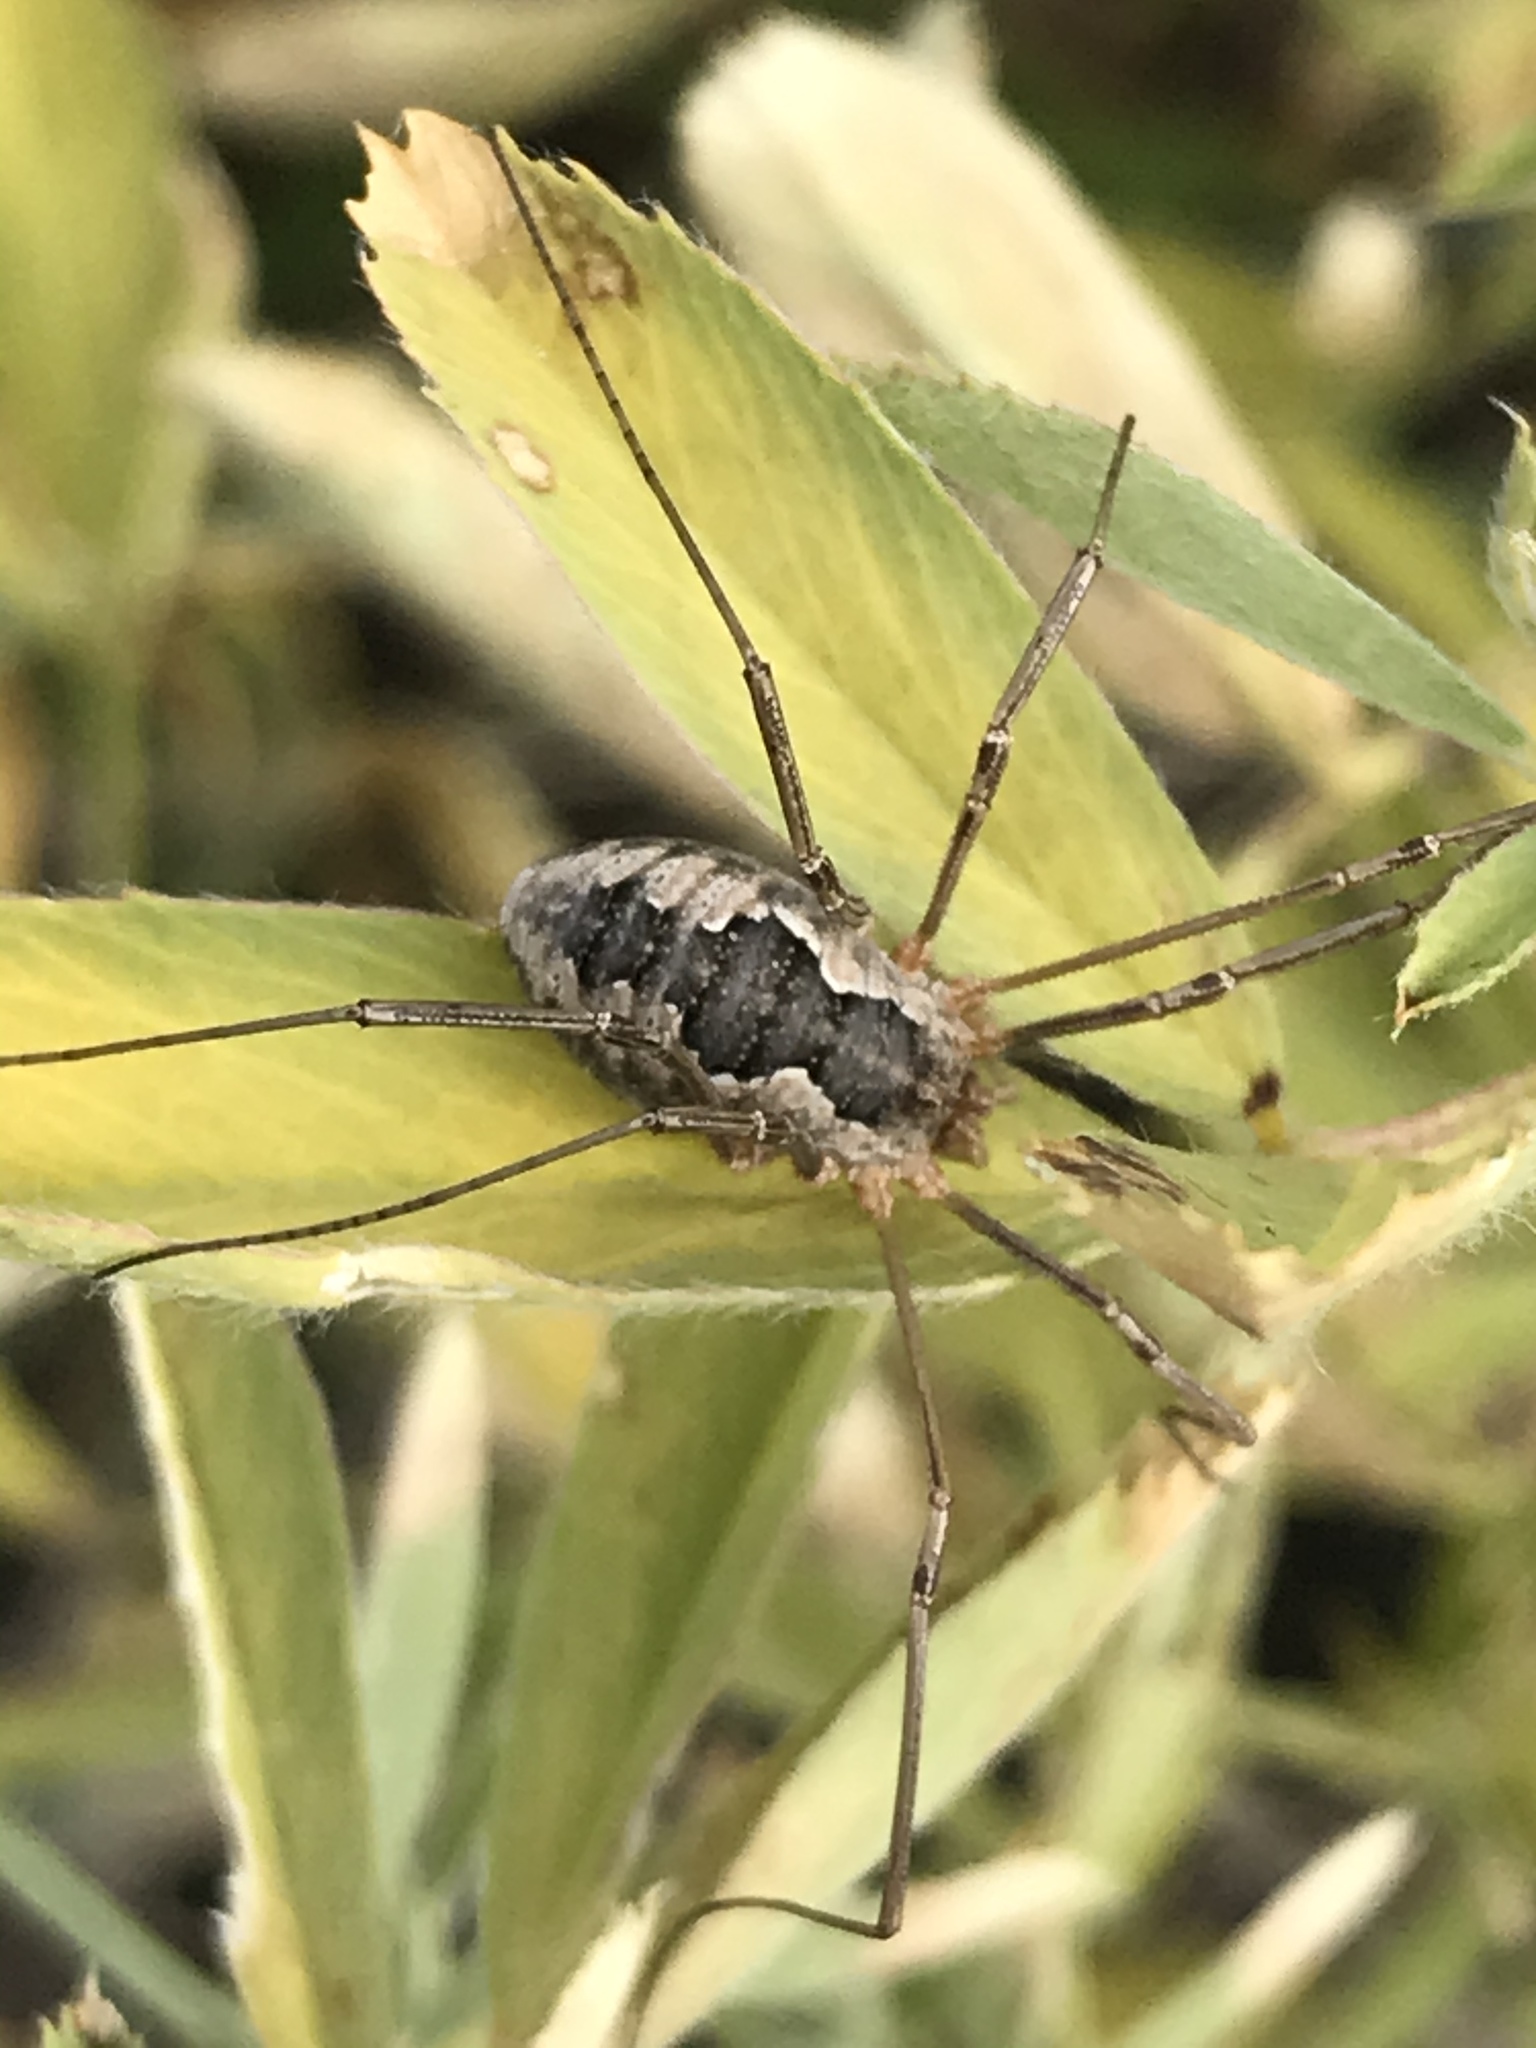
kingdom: Animalia
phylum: Arthropoda
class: Arachnida
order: Opiliones
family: Phalangiidae
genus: Phalangium
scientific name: Phalangium opilio
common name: Daddy longleg
